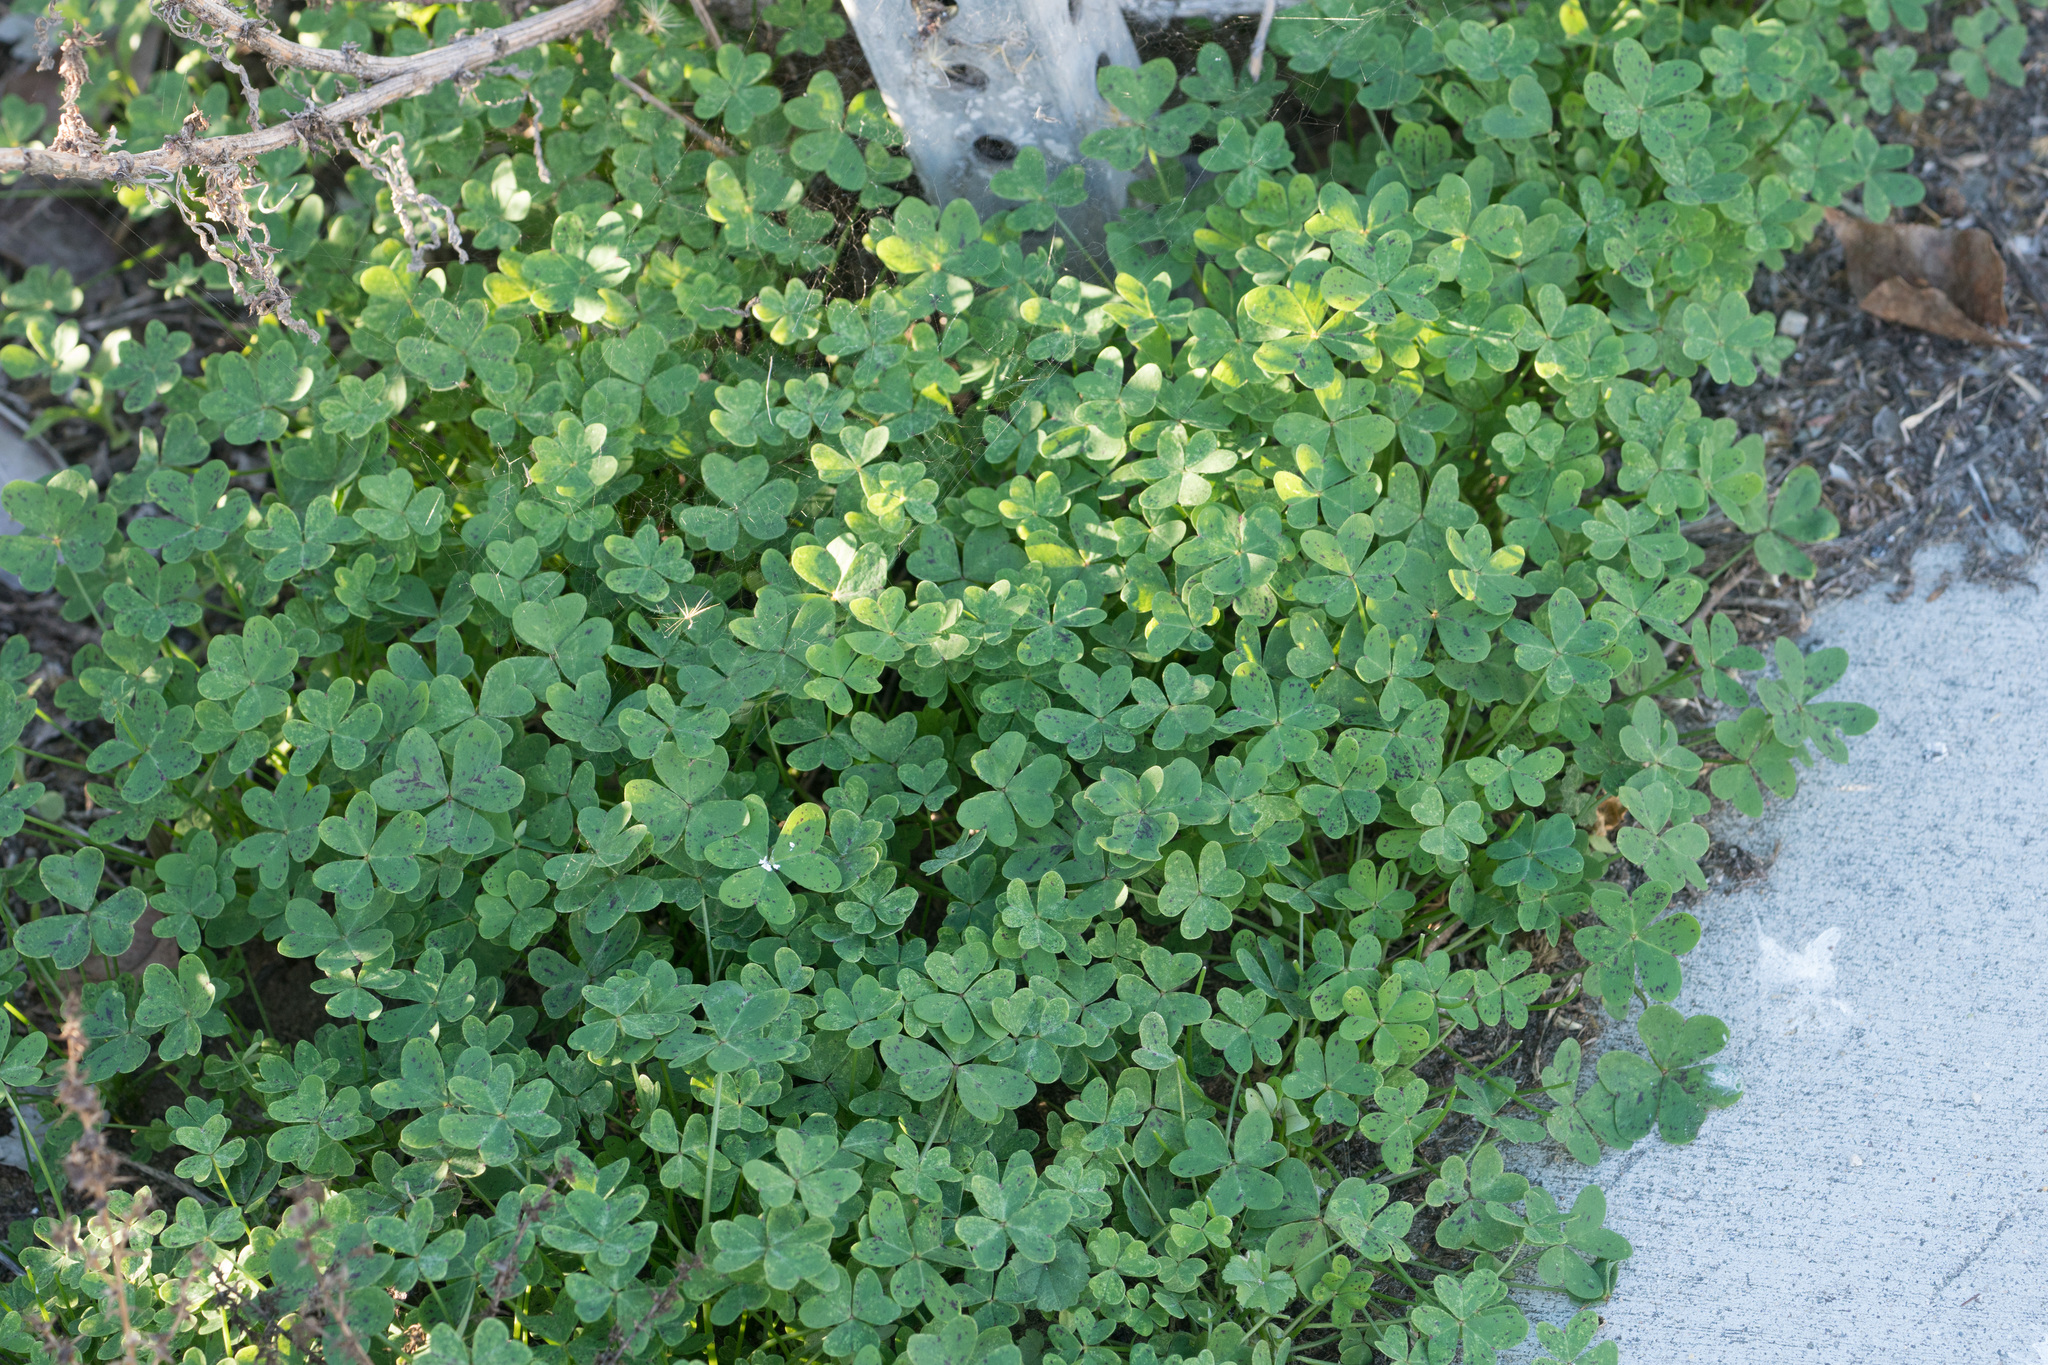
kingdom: Plantae
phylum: Tracheophyta
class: Magnoliopsida
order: Oxalidales
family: Oxalidaceae
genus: Oxalis
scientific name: Oxalis pes-caprae
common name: Bermuda-buttercup
